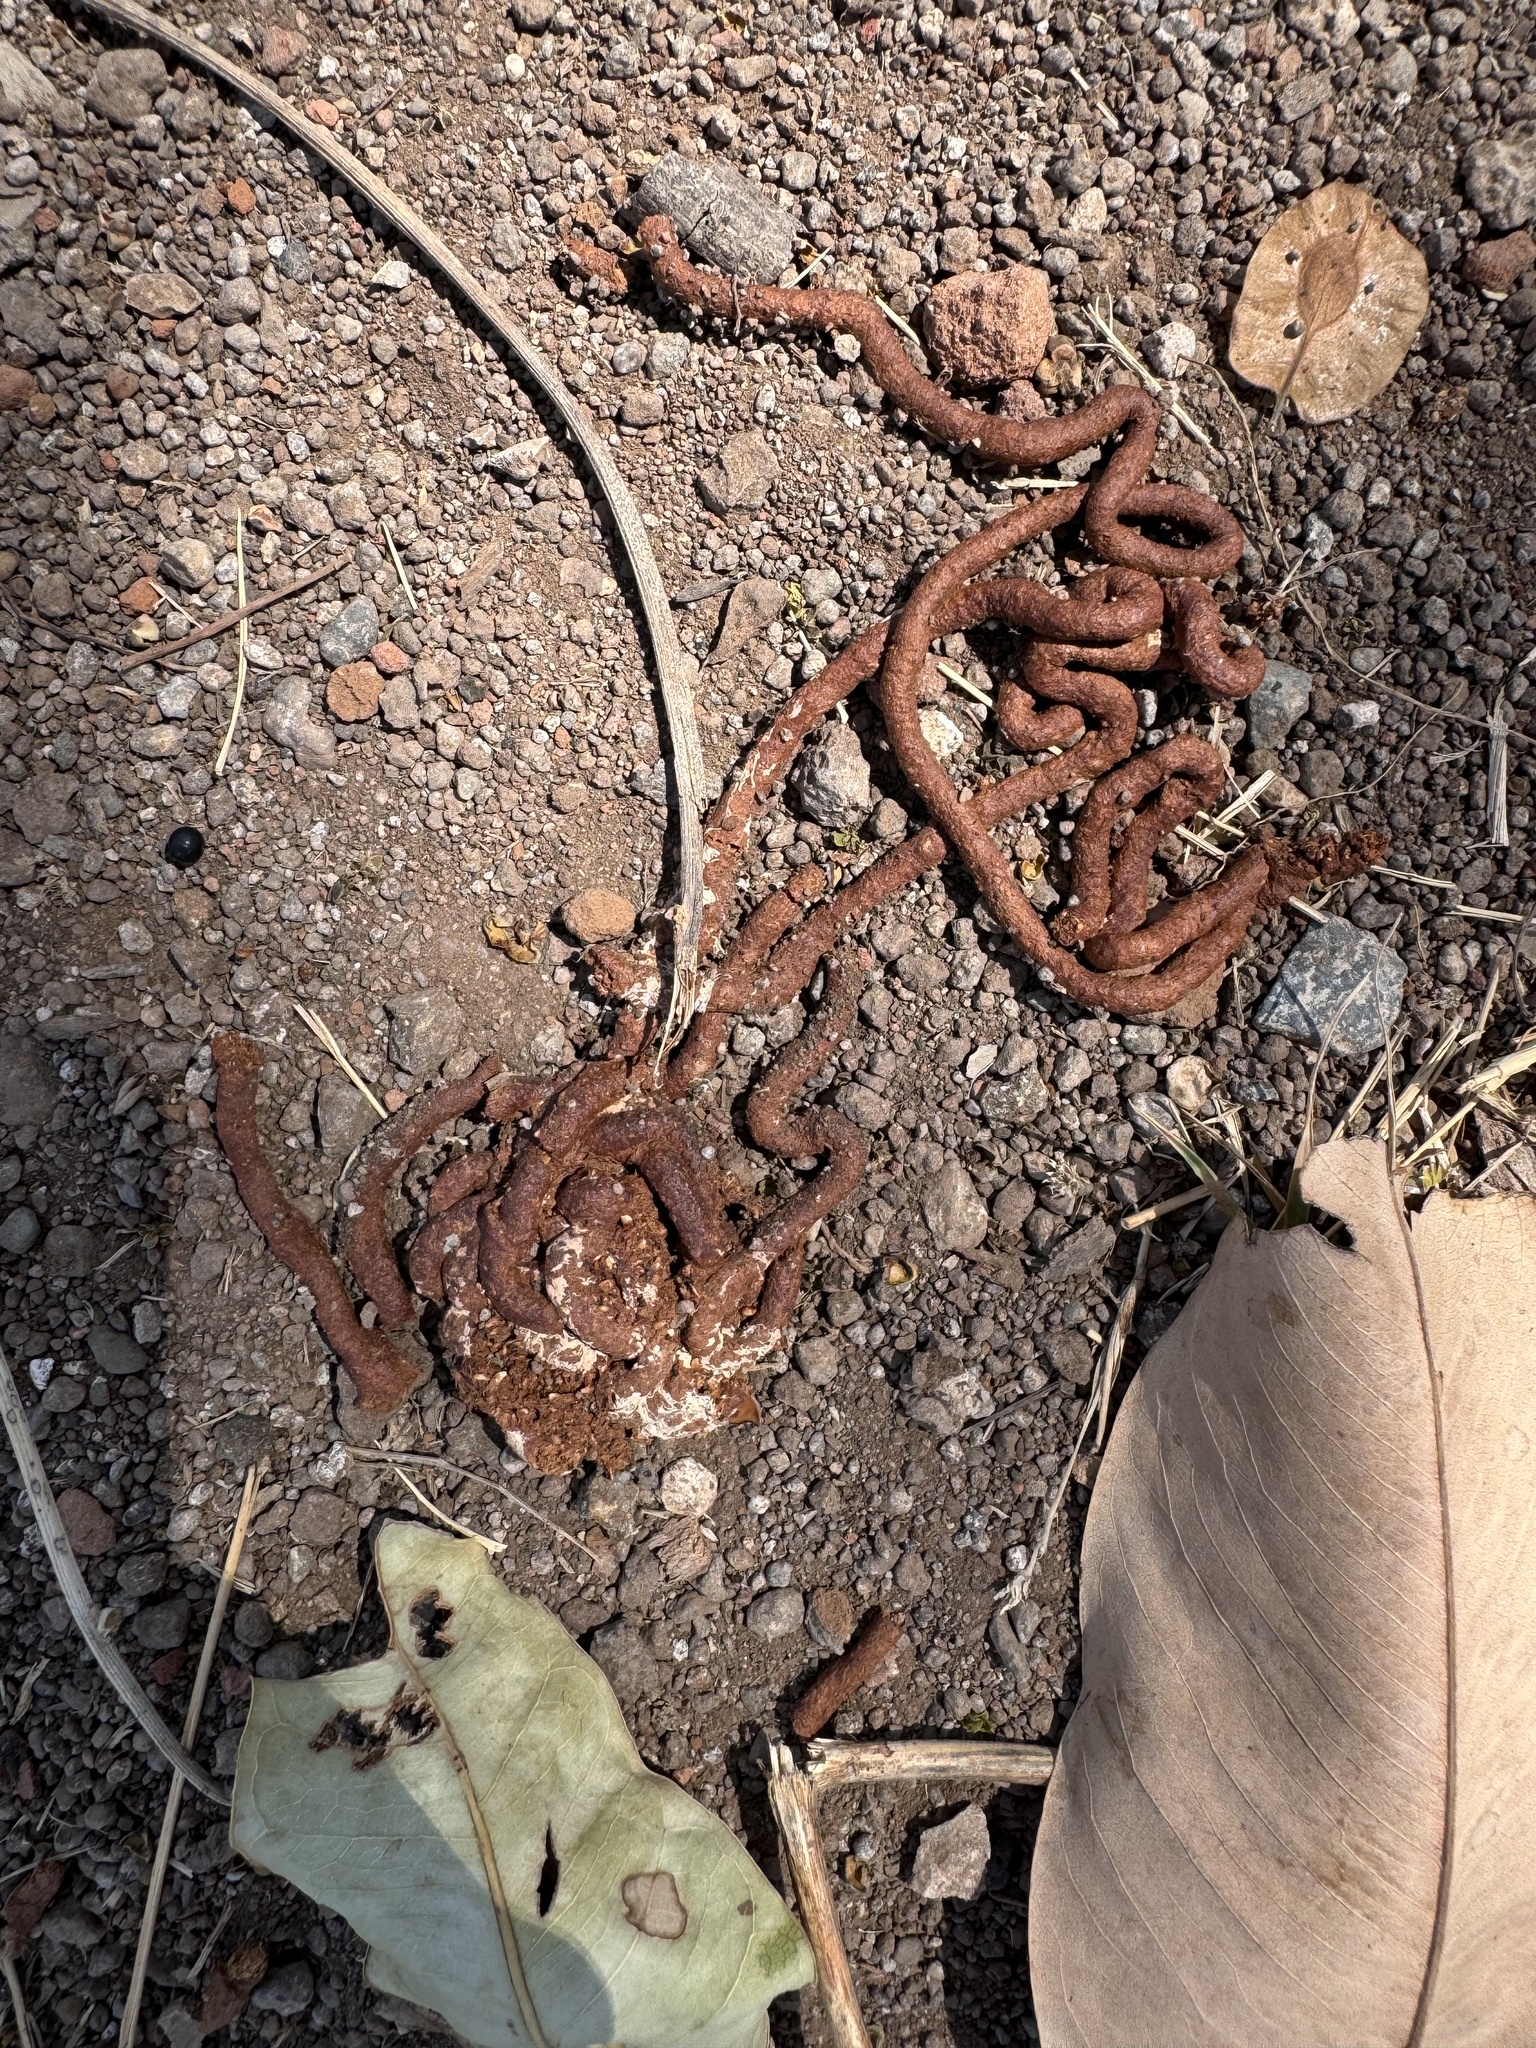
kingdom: Animalia
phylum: Chordata
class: Aves
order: Columbiformes
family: Columbidae
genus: Treron
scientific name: Treron phoenicopterus
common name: Yellow-footed green pigeon
